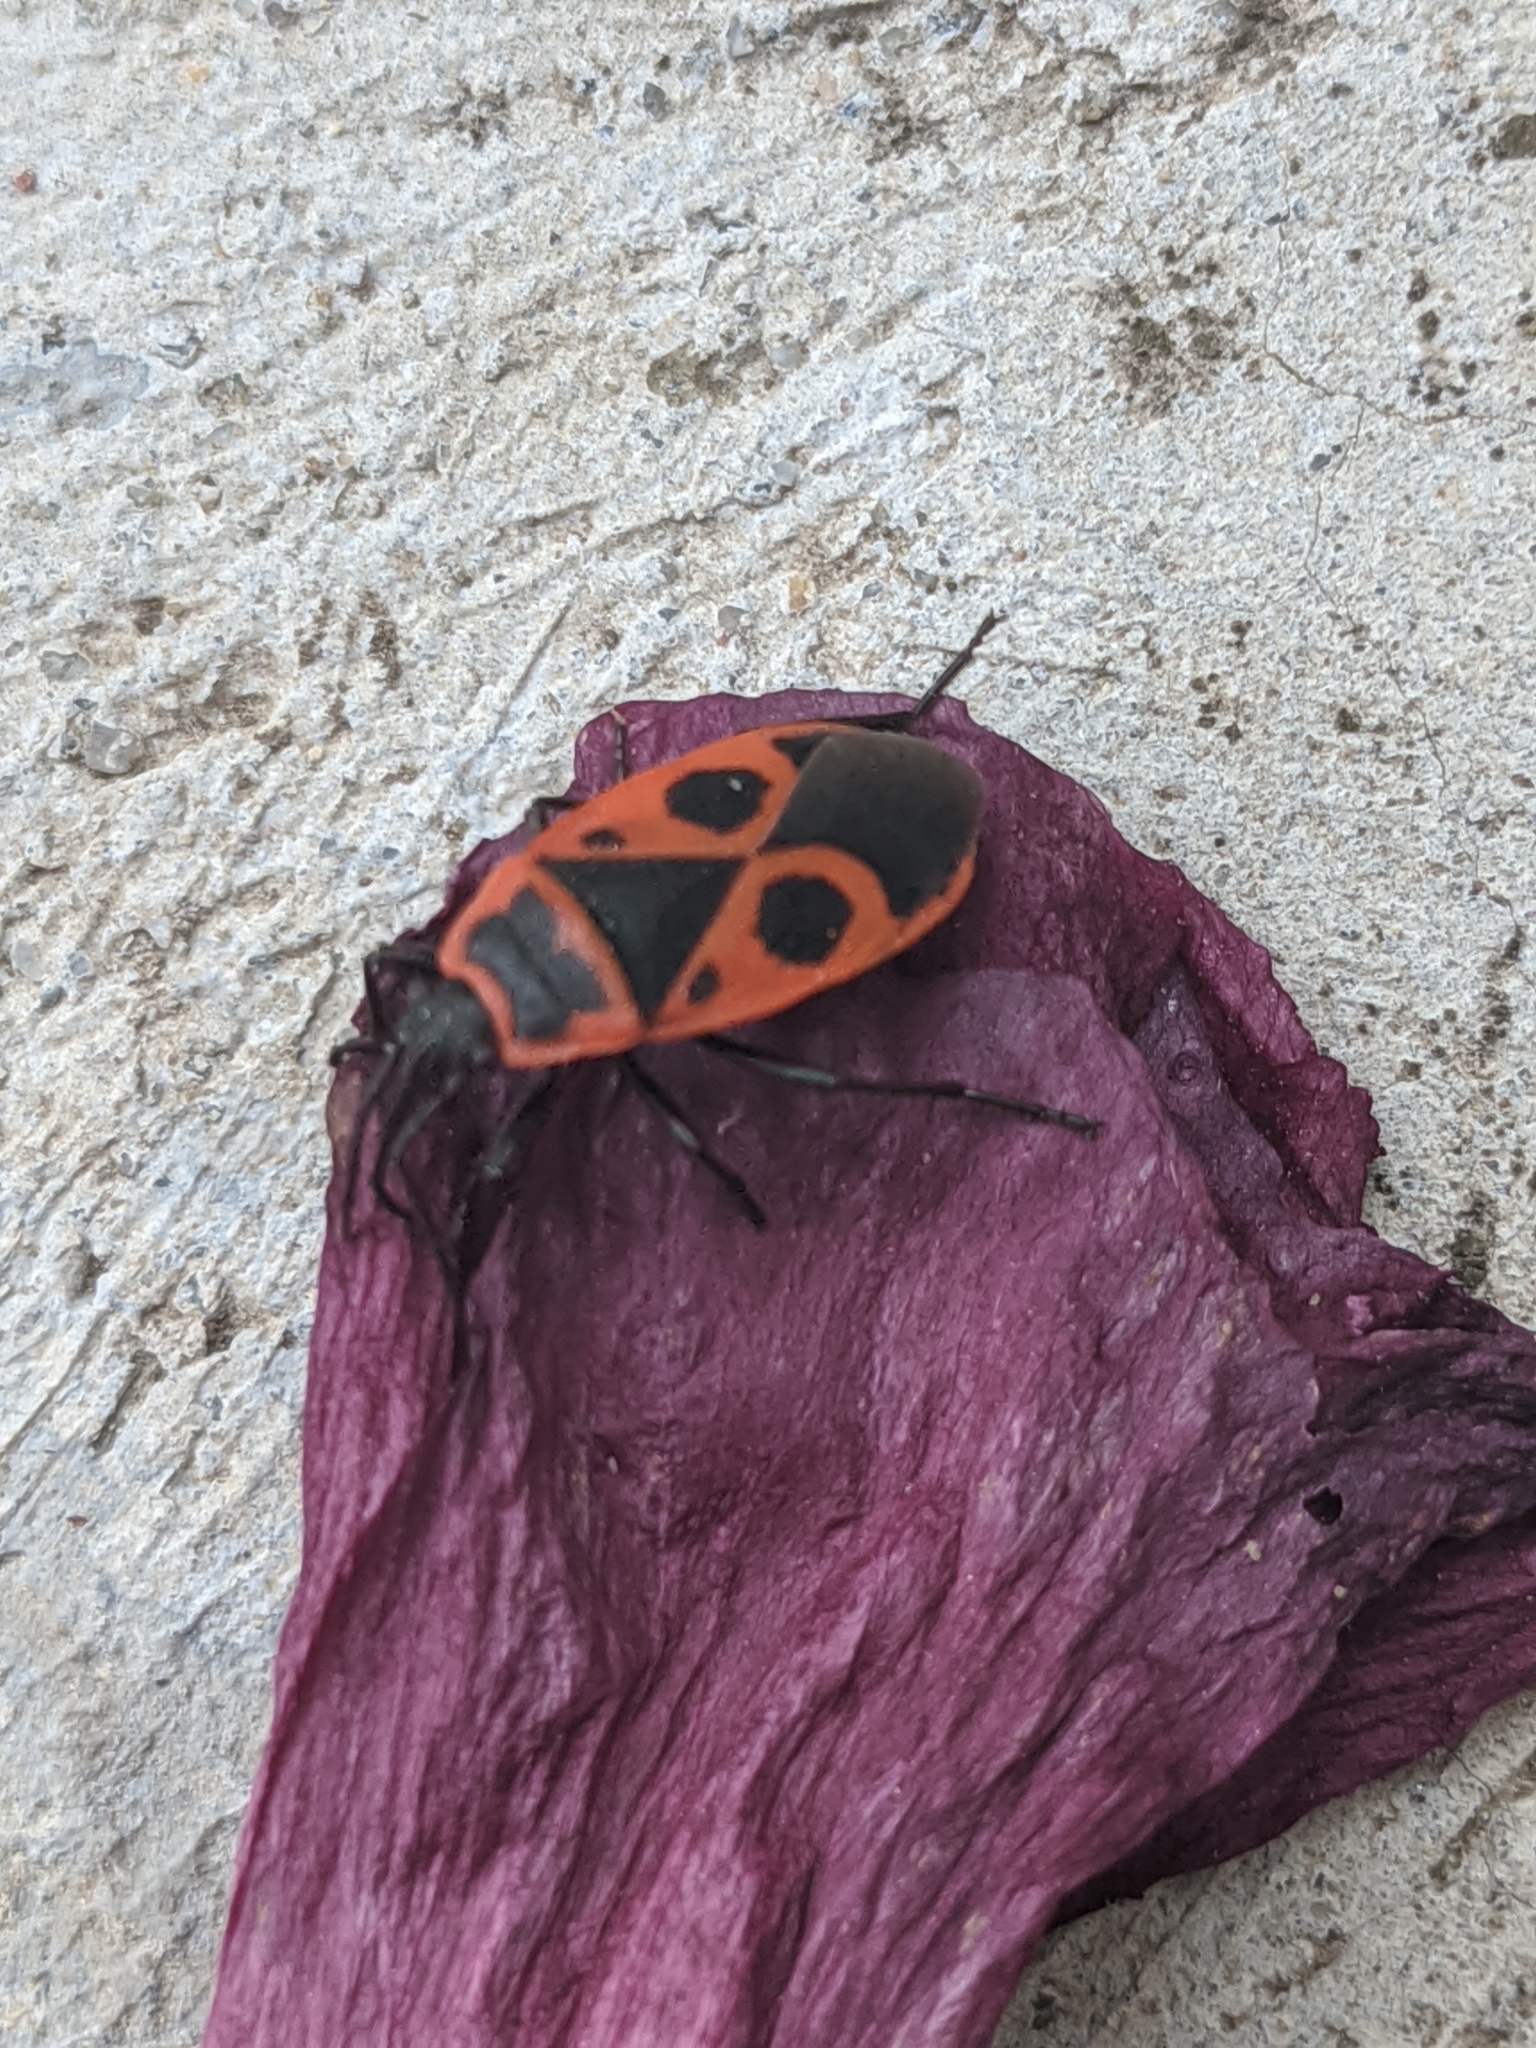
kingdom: Animalia
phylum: Arthropoda
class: Insecta
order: Hemiptera
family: Pyrrhocoridae
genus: Pyrrhocoris
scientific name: Pyrrhocoris apterus
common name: Firebug
